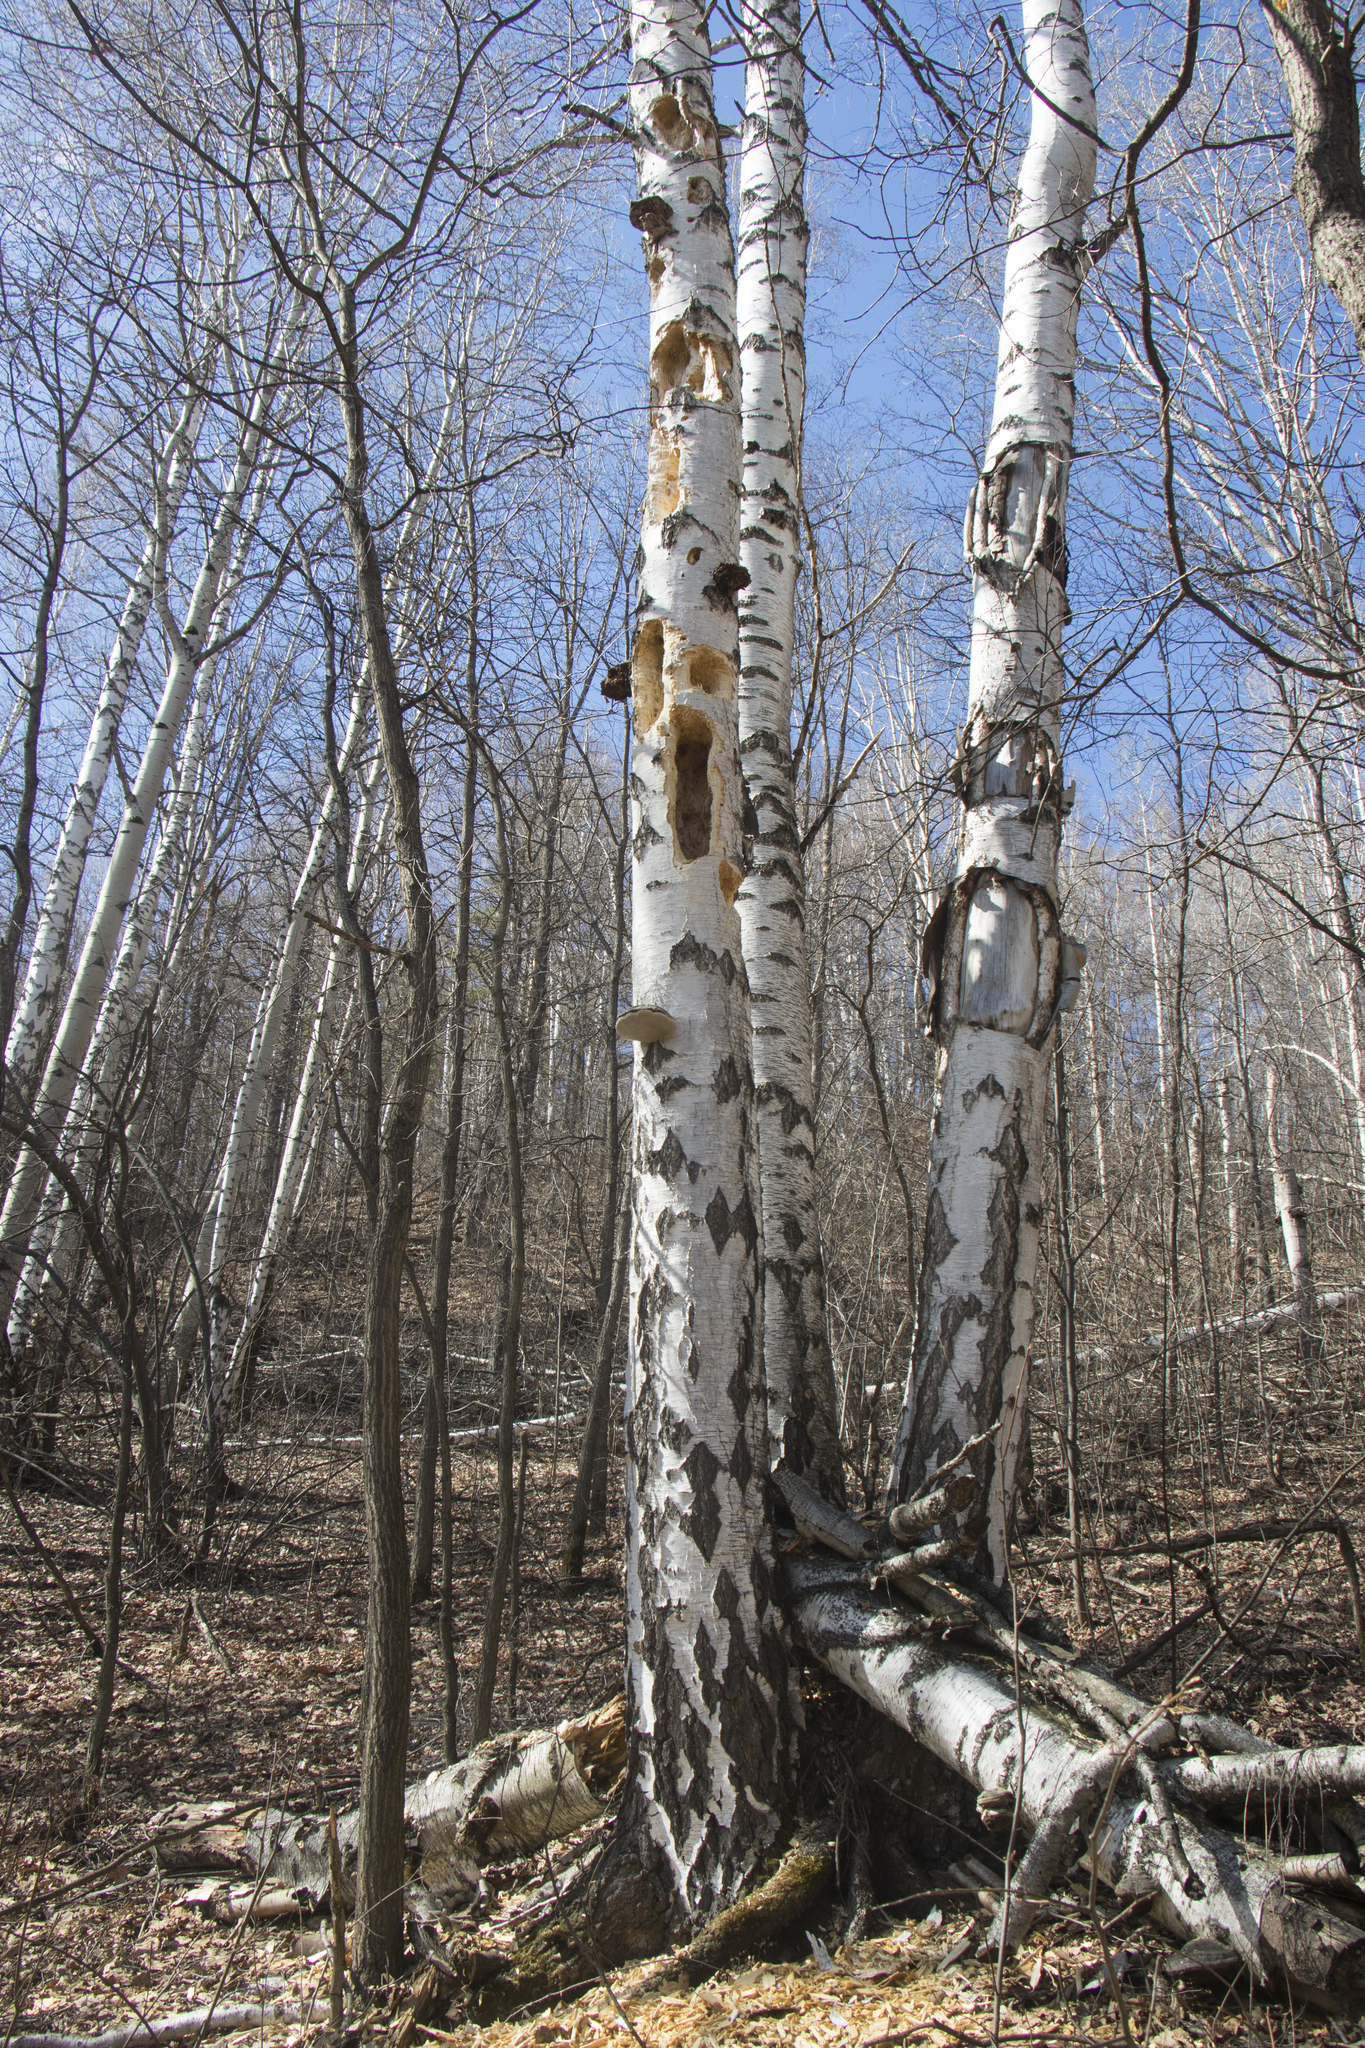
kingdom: Animalia
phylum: Chordata
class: Aves
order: Piciformes
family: Picidae
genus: Dryocopus
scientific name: Dryocopus martius
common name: Black woodpecker
